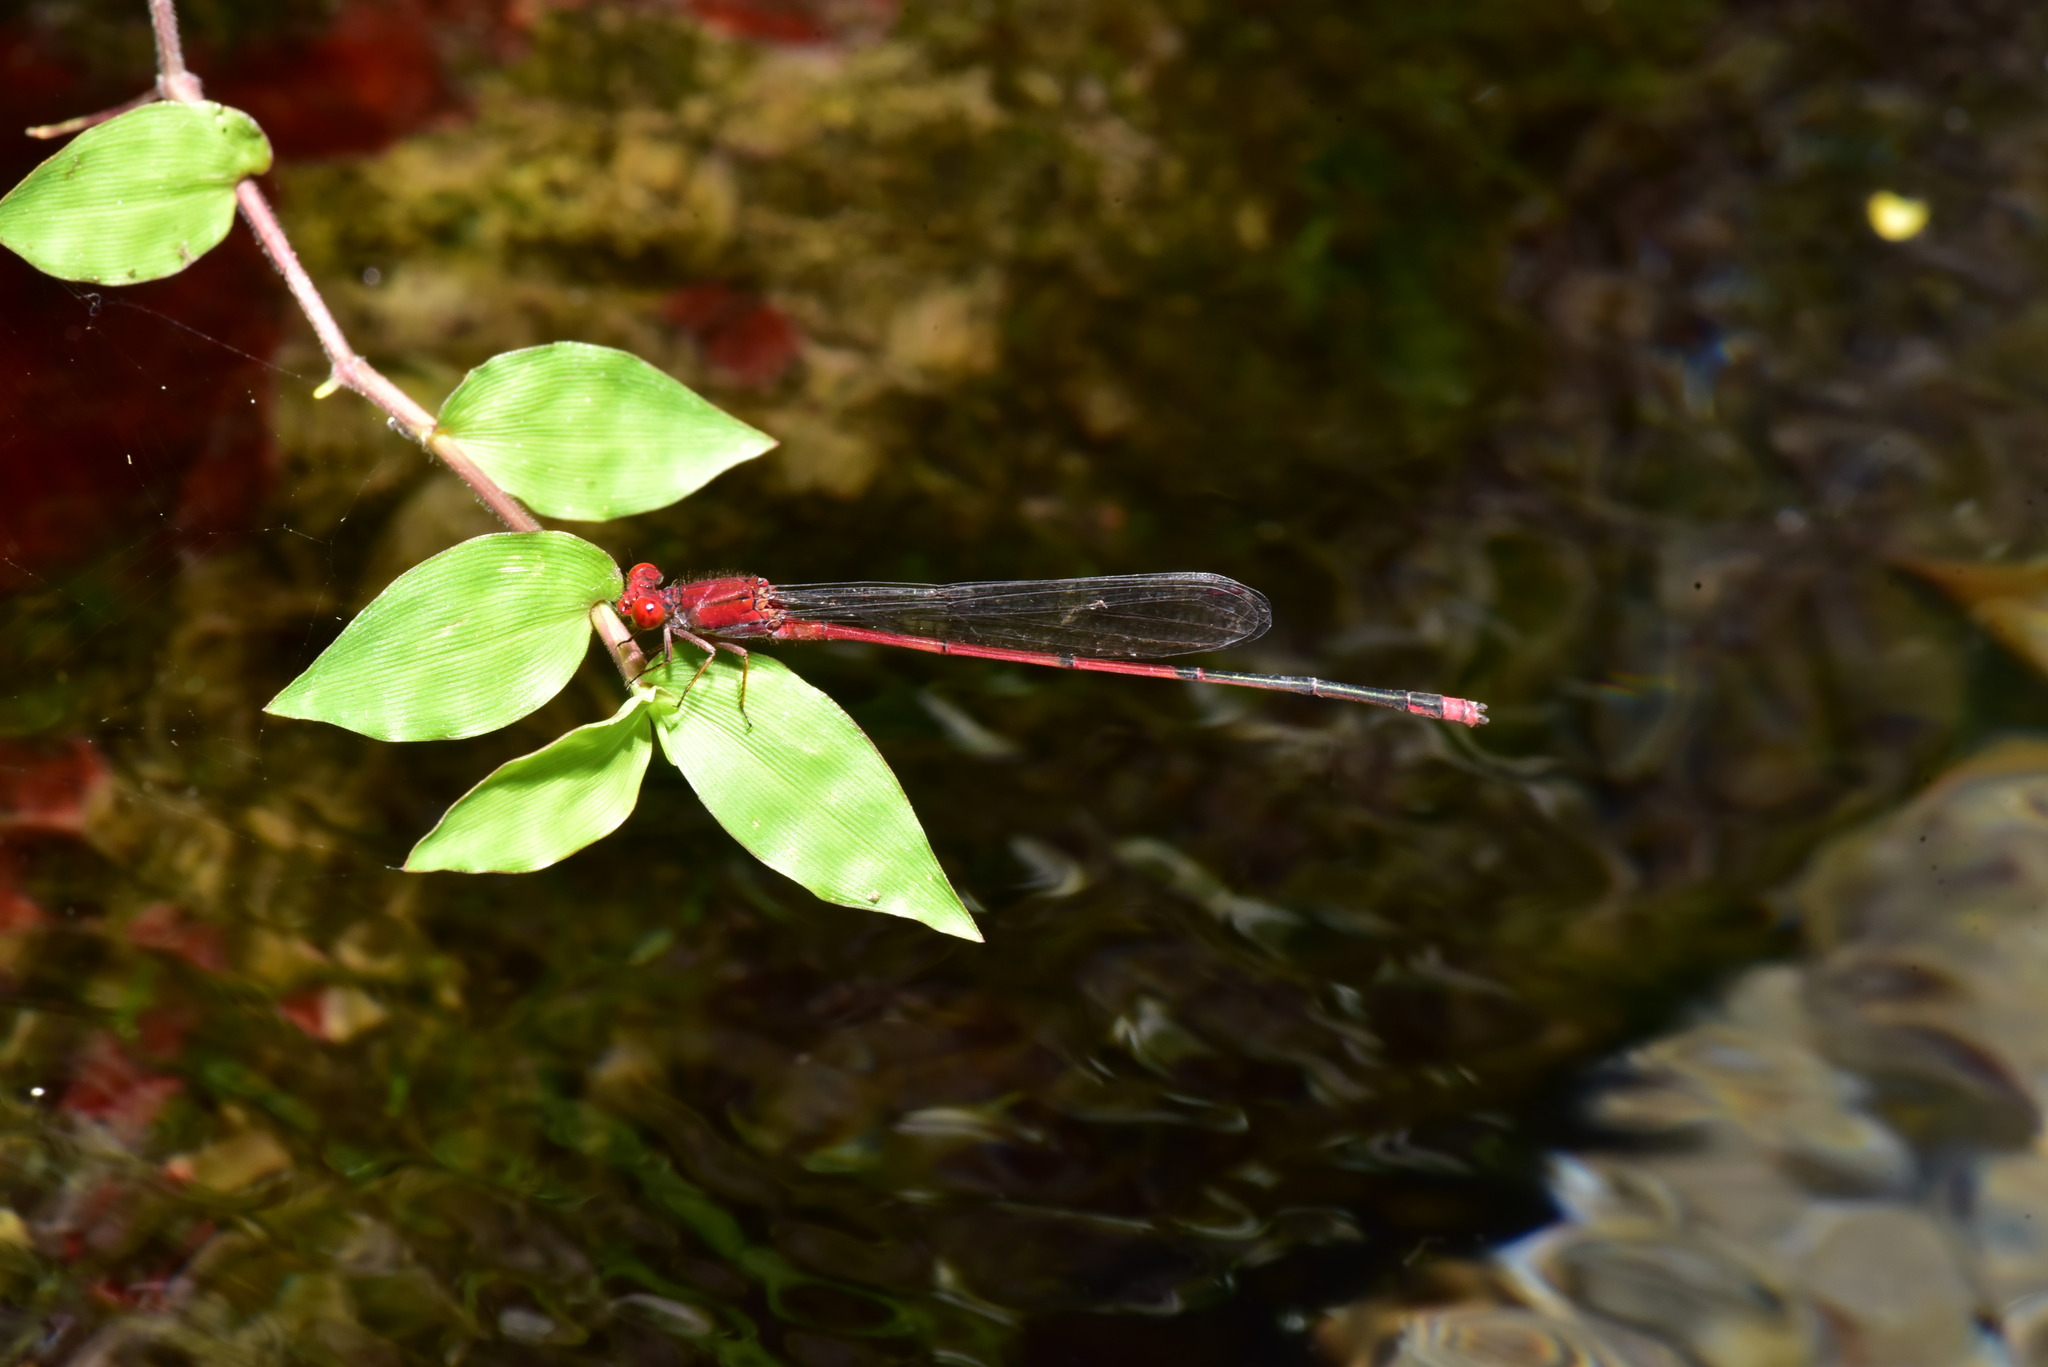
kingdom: Animalia
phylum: Arthropoda
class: Insecta
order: Odonata
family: Coenagrionidae
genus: Pseudagrion
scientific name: Pseudagrion pilidorsum
